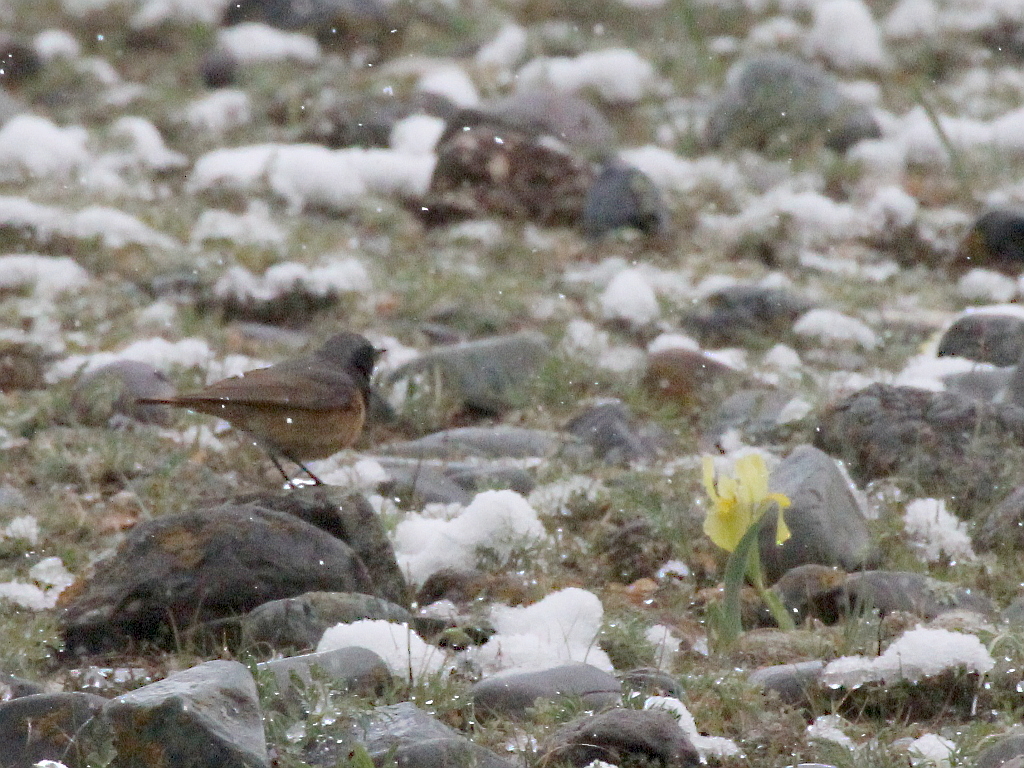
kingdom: Animalia
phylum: Chordata
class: Aves
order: Passeriformes
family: Muscicapidae
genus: Phoenicurus
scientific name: Phoenicurus ochruros
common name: Black redstart
